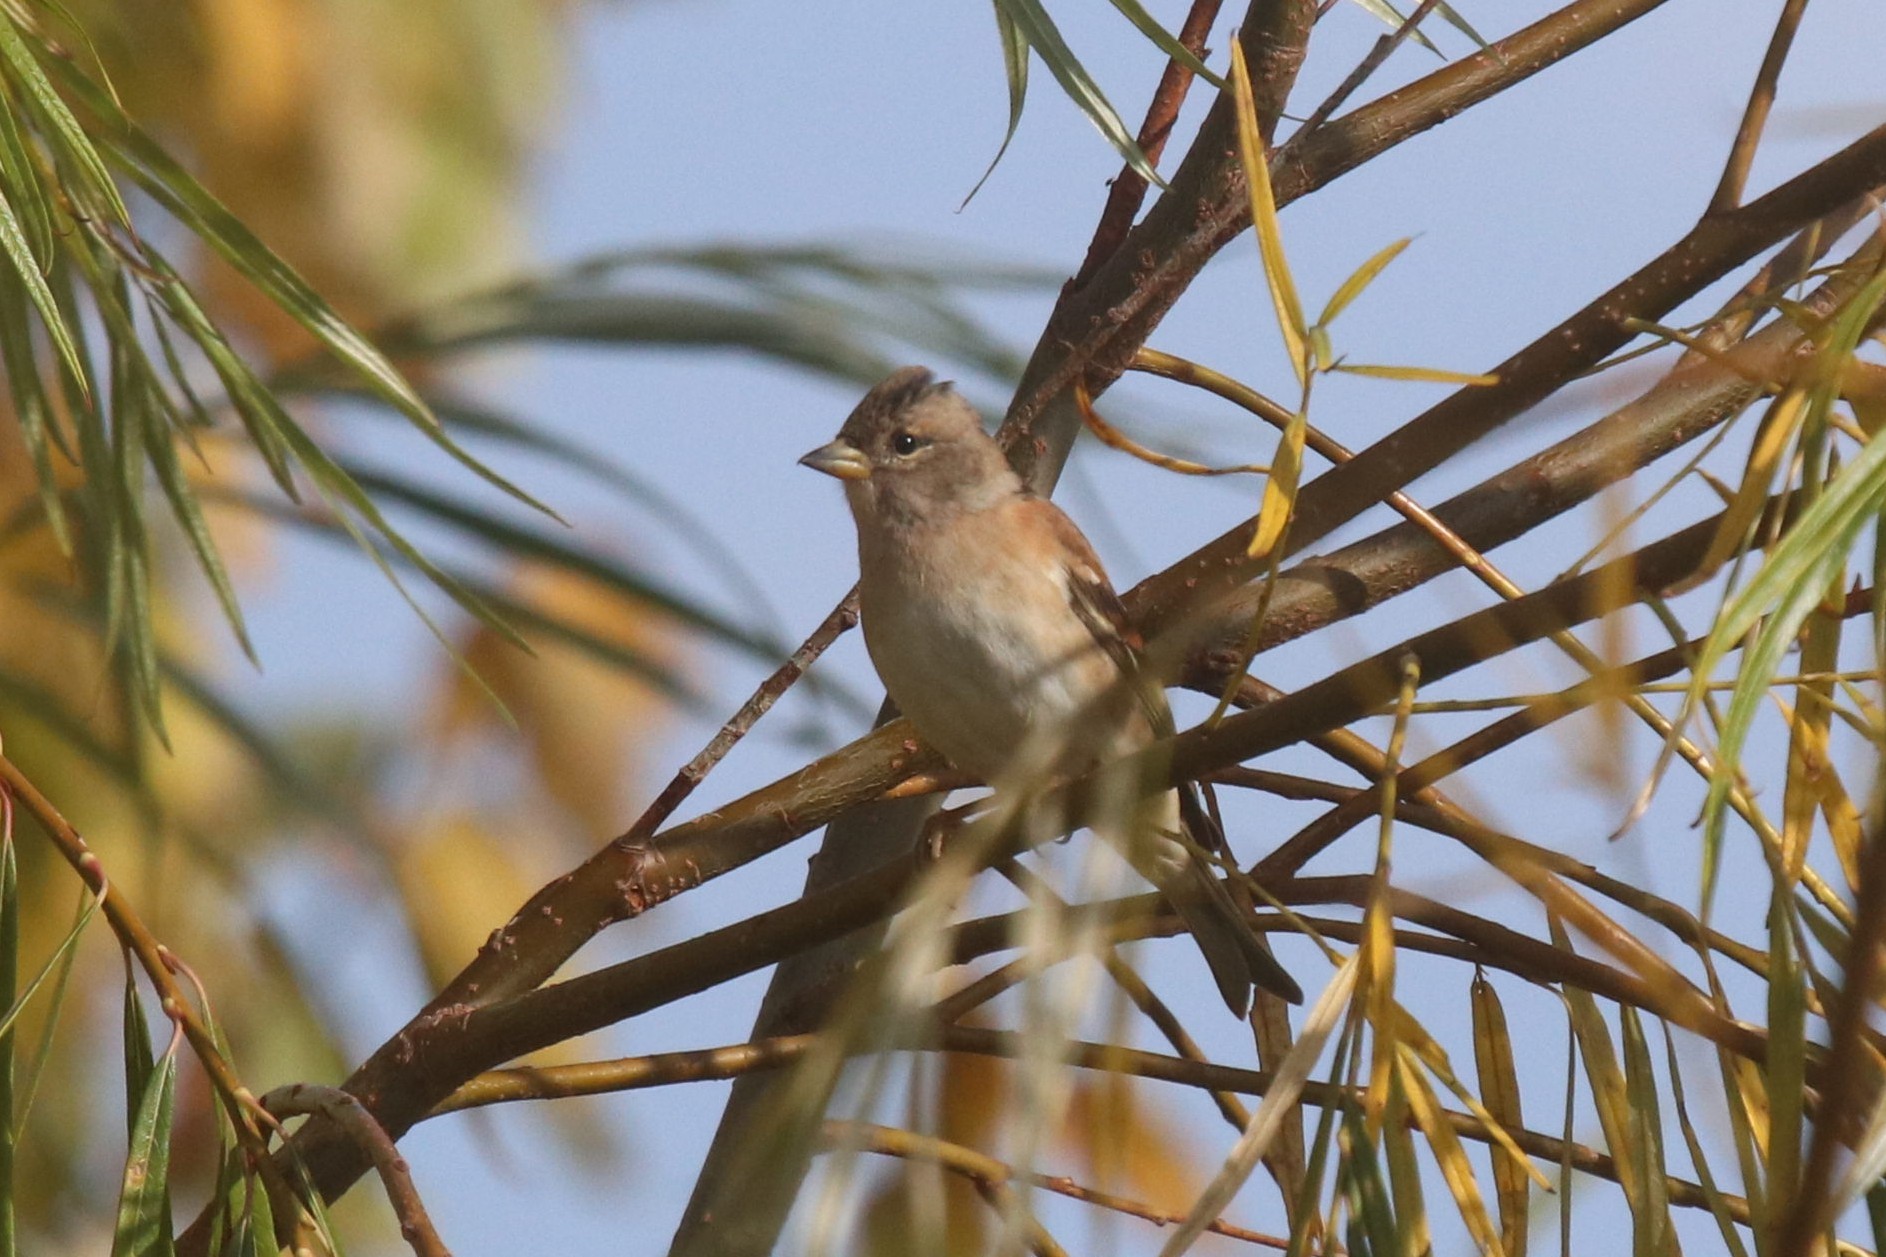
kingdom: Animalia
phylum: Chordata
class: Aves
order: Passeriformes
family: Fringillidae
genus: Fringilla
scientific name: Fringilla montifringilla
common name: Brambling
